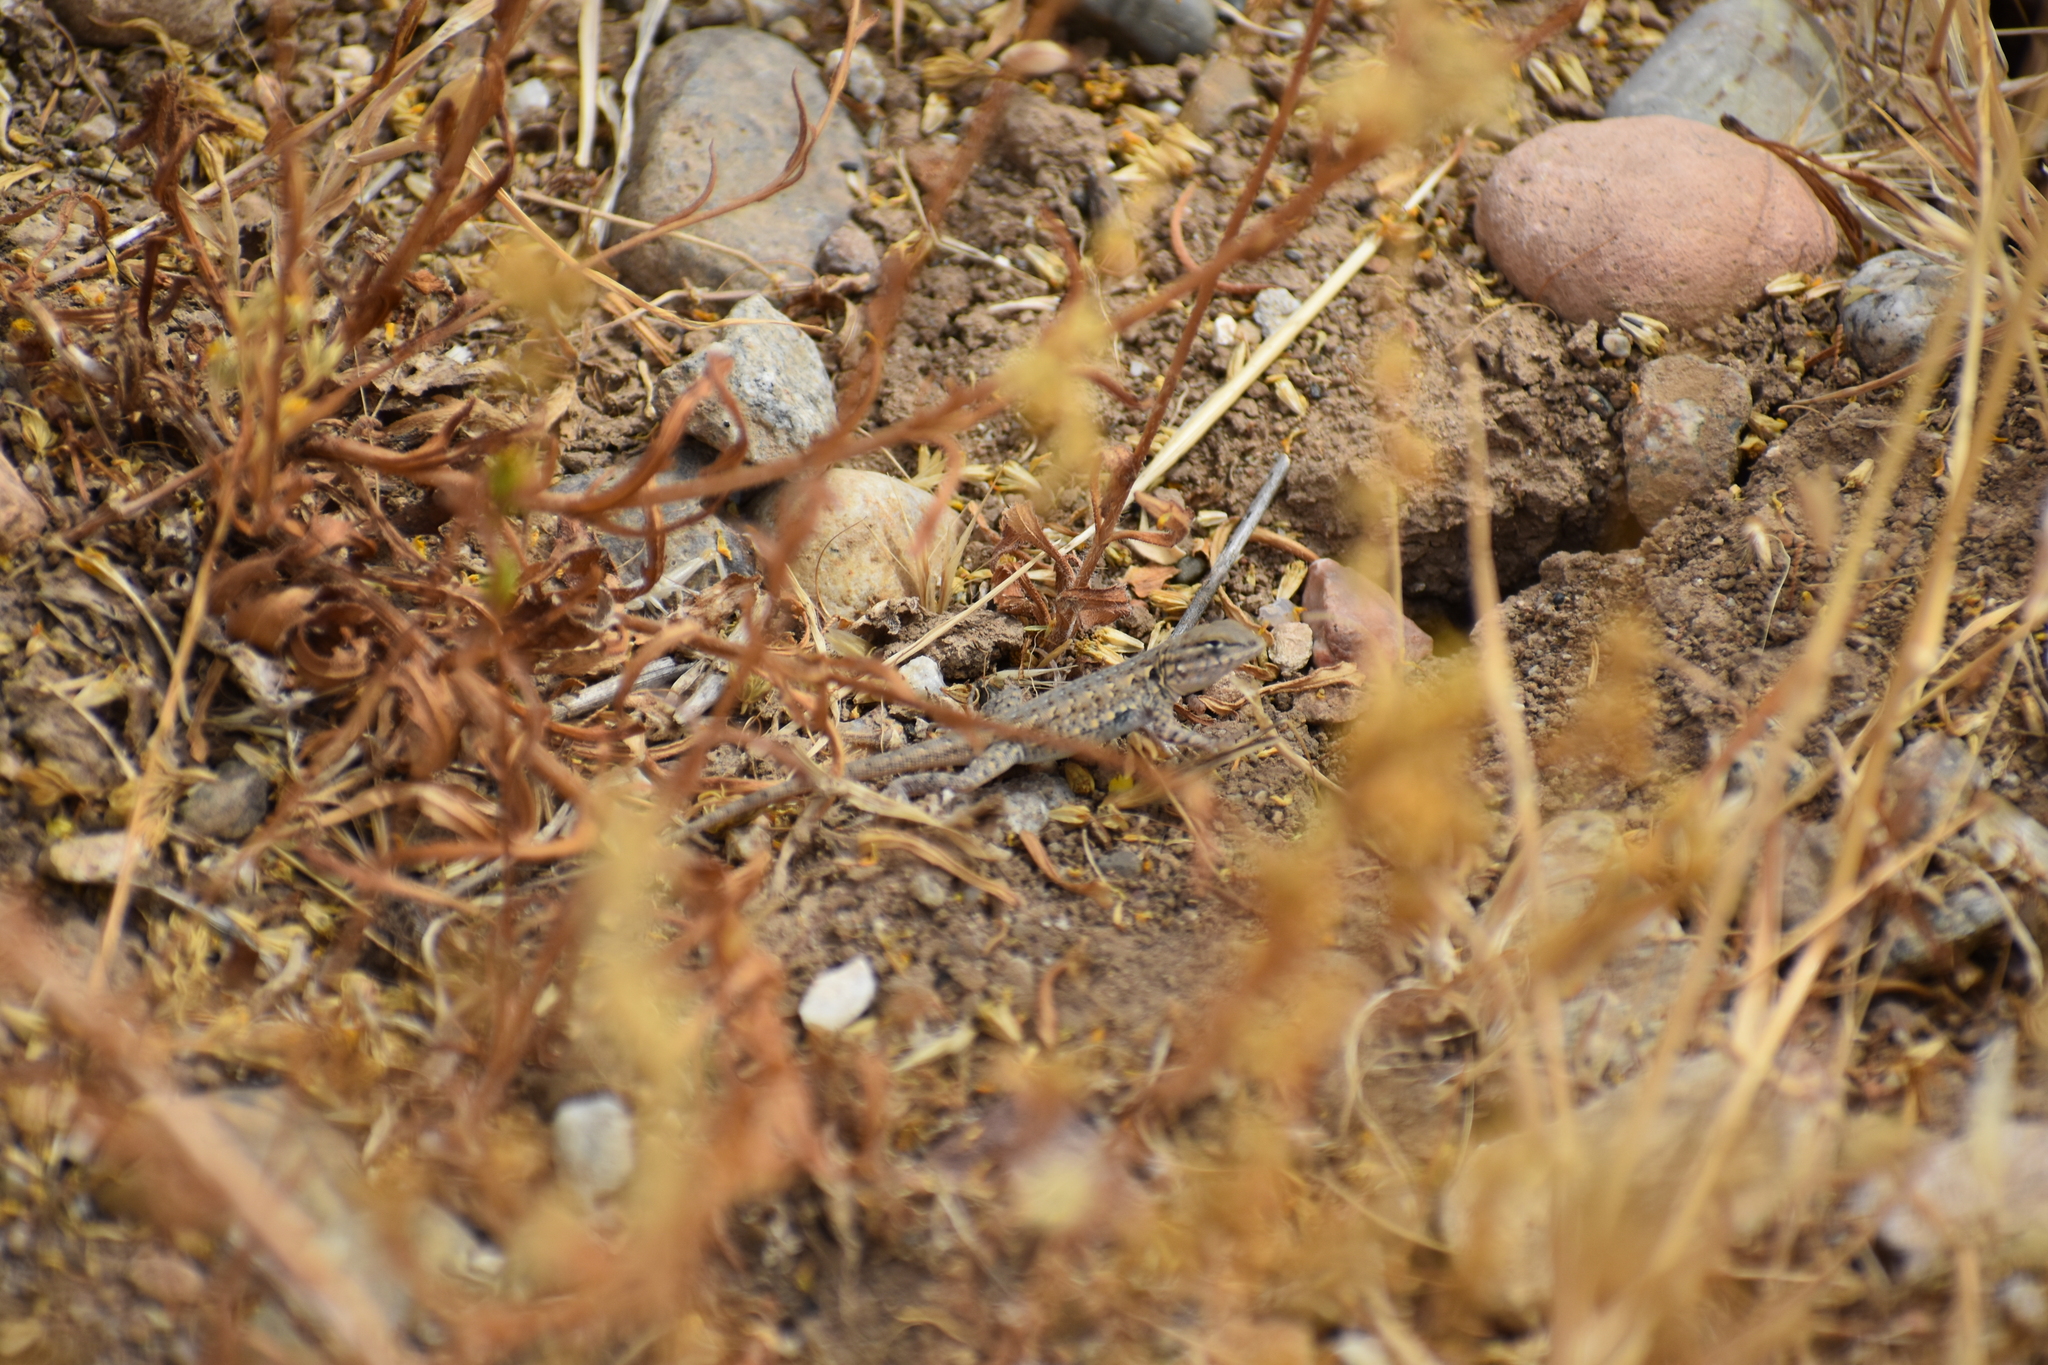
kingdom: Animalia
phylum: Chordata
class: Squamata
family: Phrynosomatidae
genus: Uta
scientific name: Uta stansburiana
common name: Side-blotched lizard
